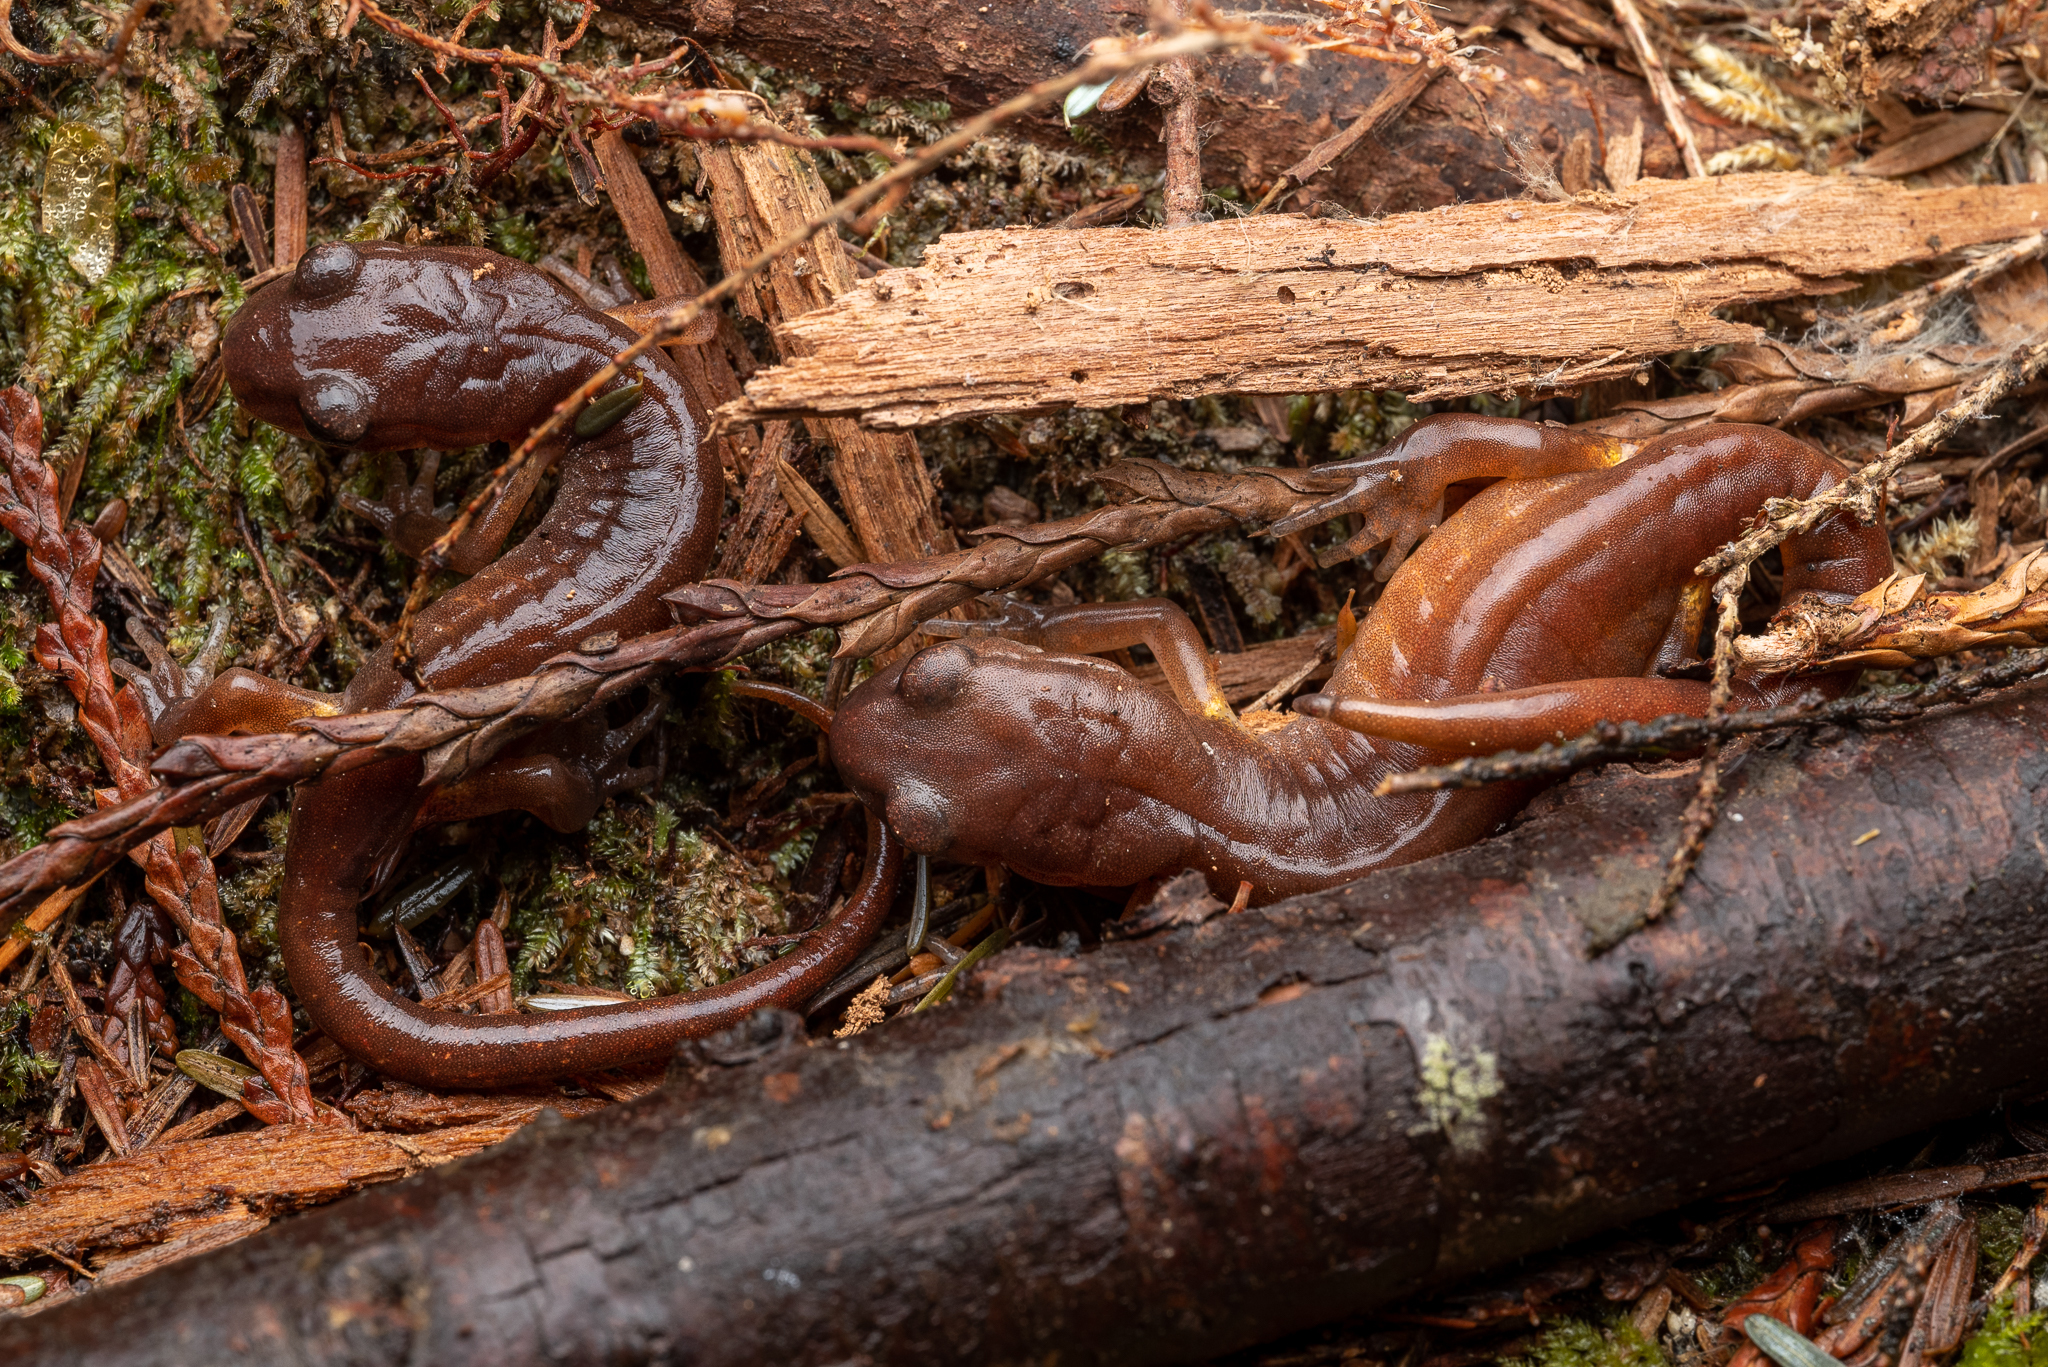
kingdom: Animalia
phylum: Chordata
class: Amphibia
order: Caudata
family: Plethodontidae
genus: Ensatina
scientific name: Ensatina eschscholtzii
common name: Ensatina
